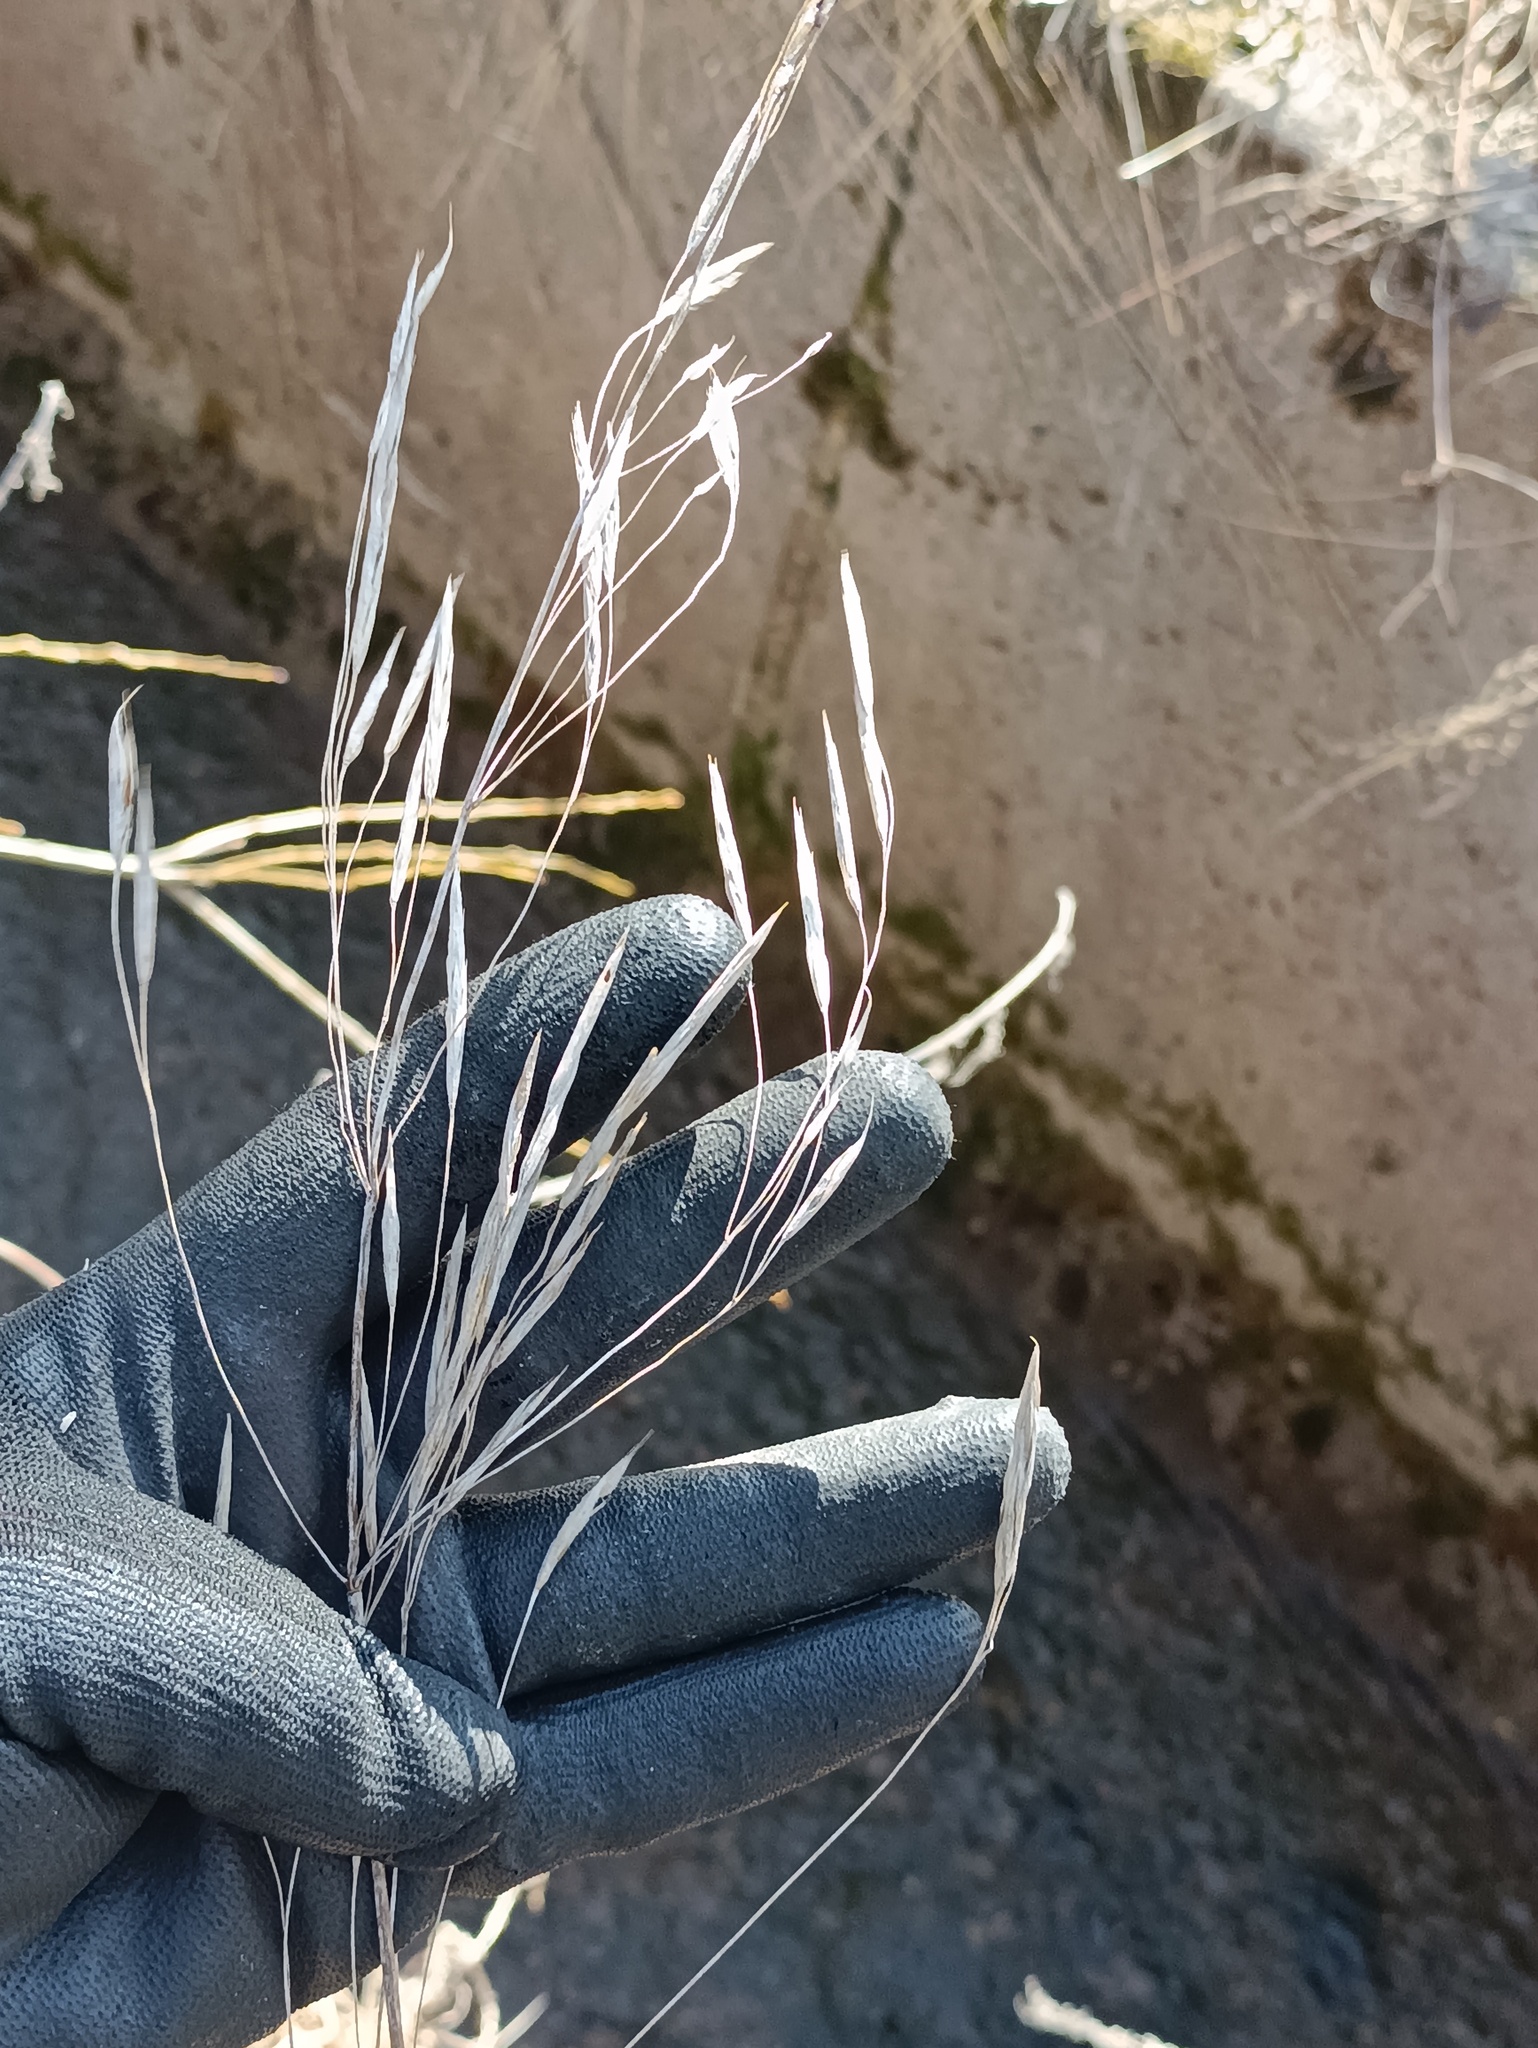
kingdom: Plantae
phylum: Tracheophyta
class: Liliopsida
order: Poales
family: Poaceae
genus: Bromus
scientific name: Bromus inermis
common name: Smooth brome
